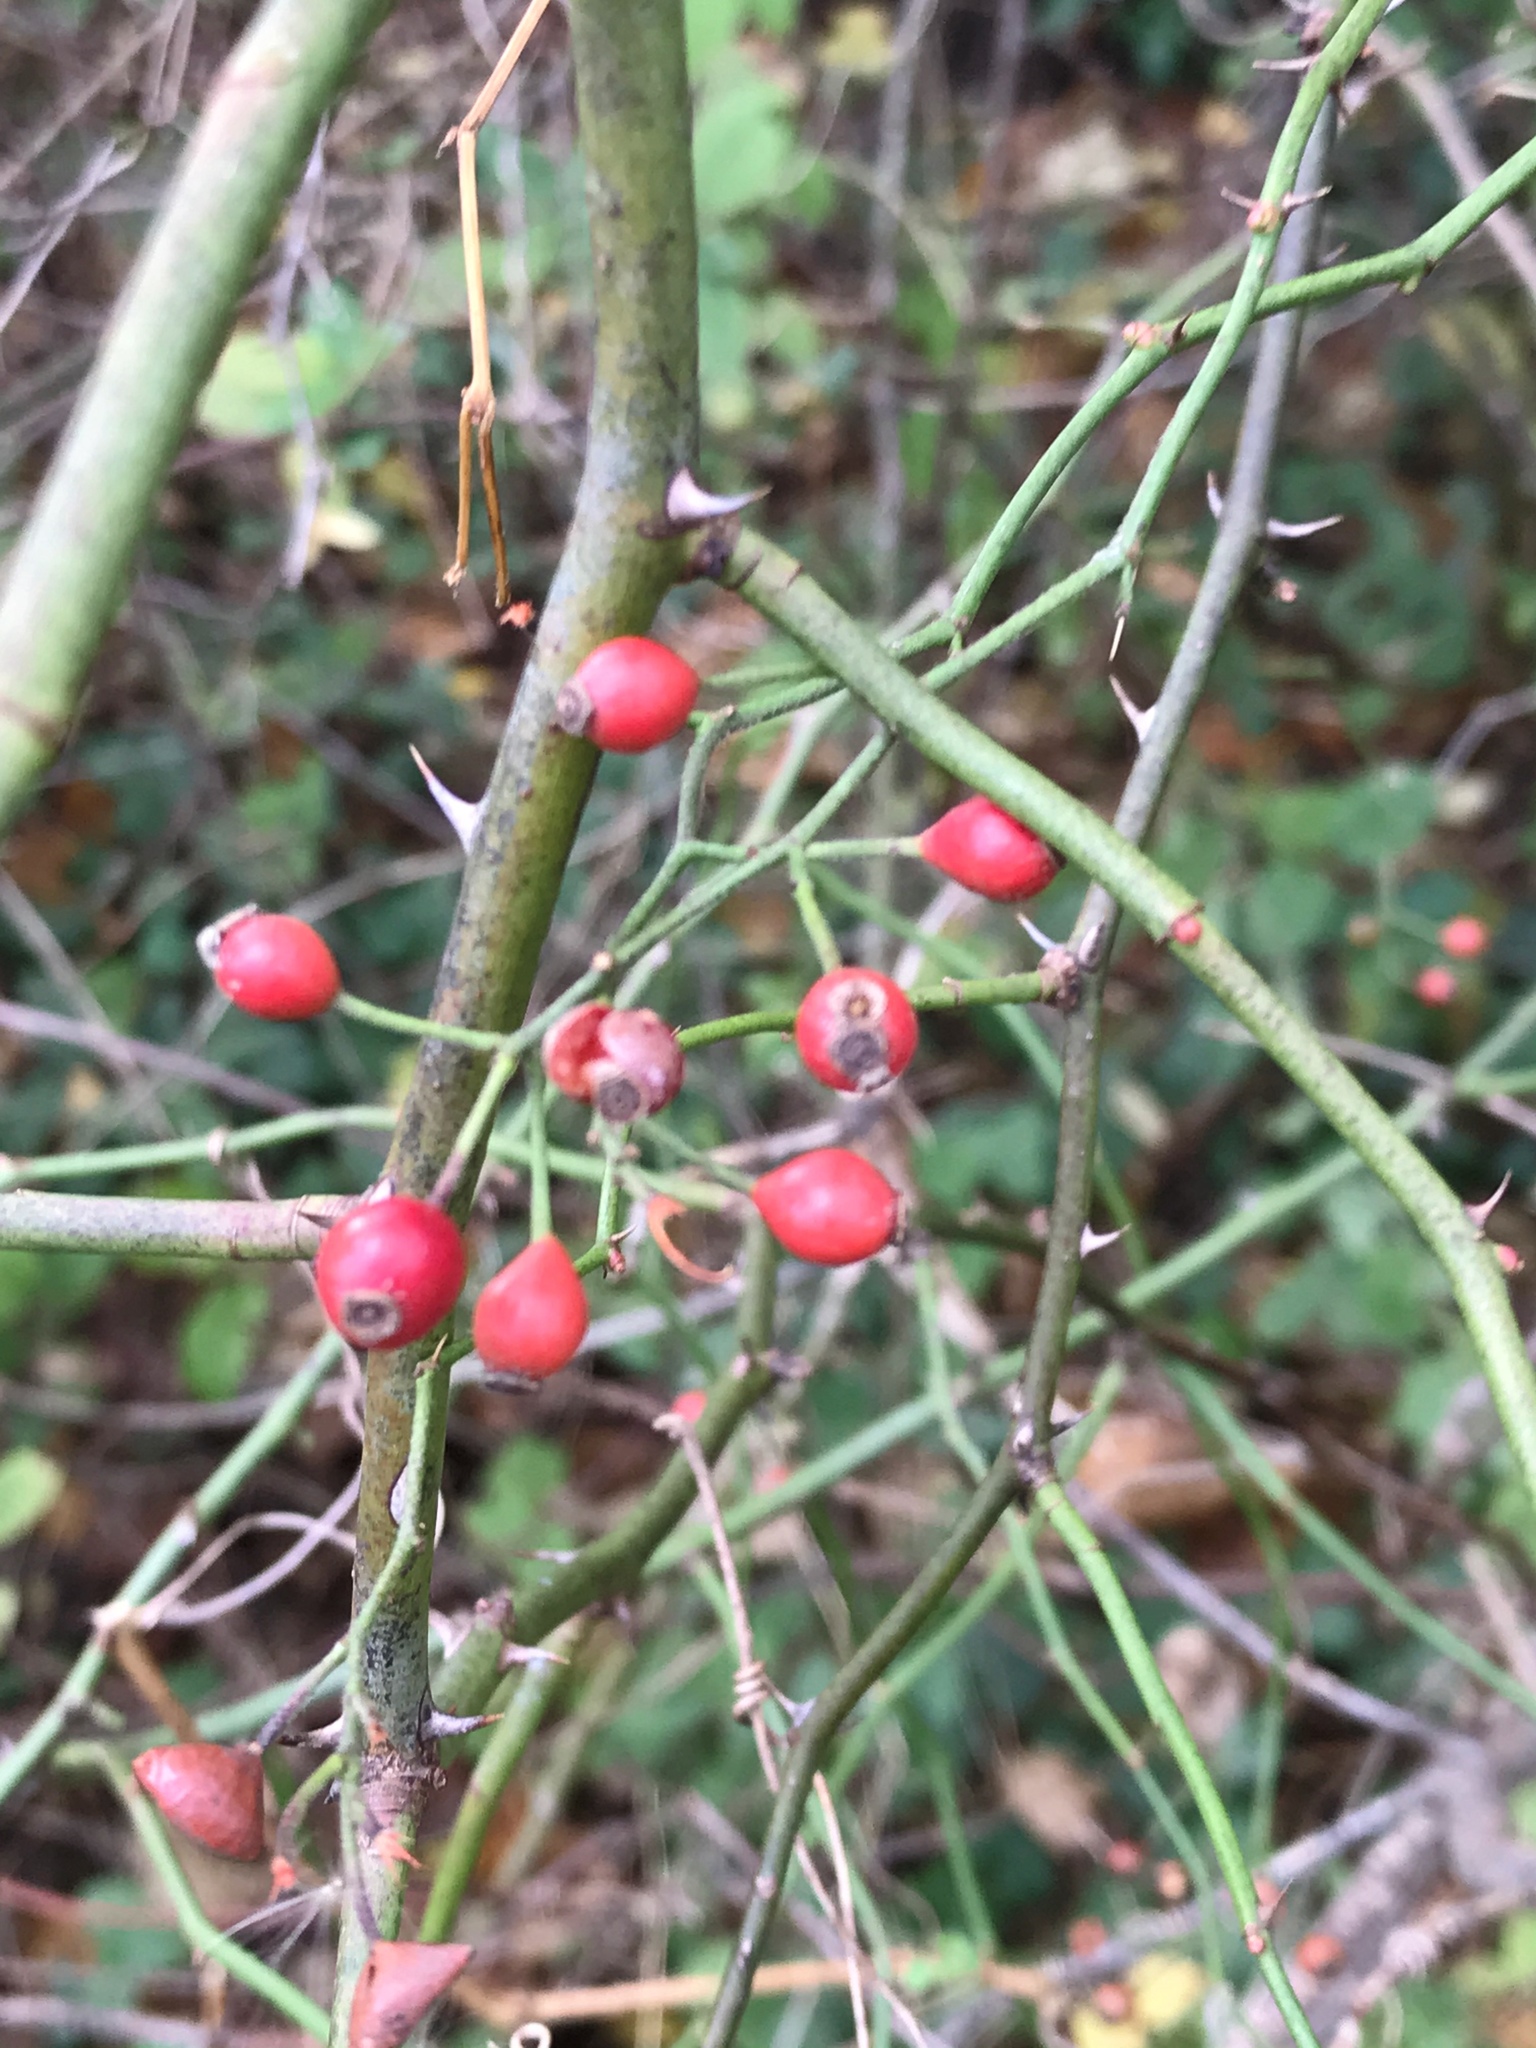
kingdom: Plantae
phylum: Tracheophyta
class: Magnoliopsida
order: Rosales
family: Rosaceae
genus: Rosa
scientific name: Rosa multiflora
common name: Multiflora rose
